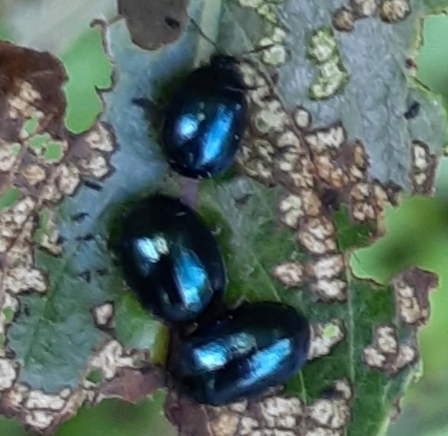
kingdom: Animalia
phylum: Arthropoda
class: Insecta
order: Coleoptera
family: Chrysomelidae
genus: Plagiodera
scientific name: Plagiodera versicolora
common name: Imported willow leaf beetle
